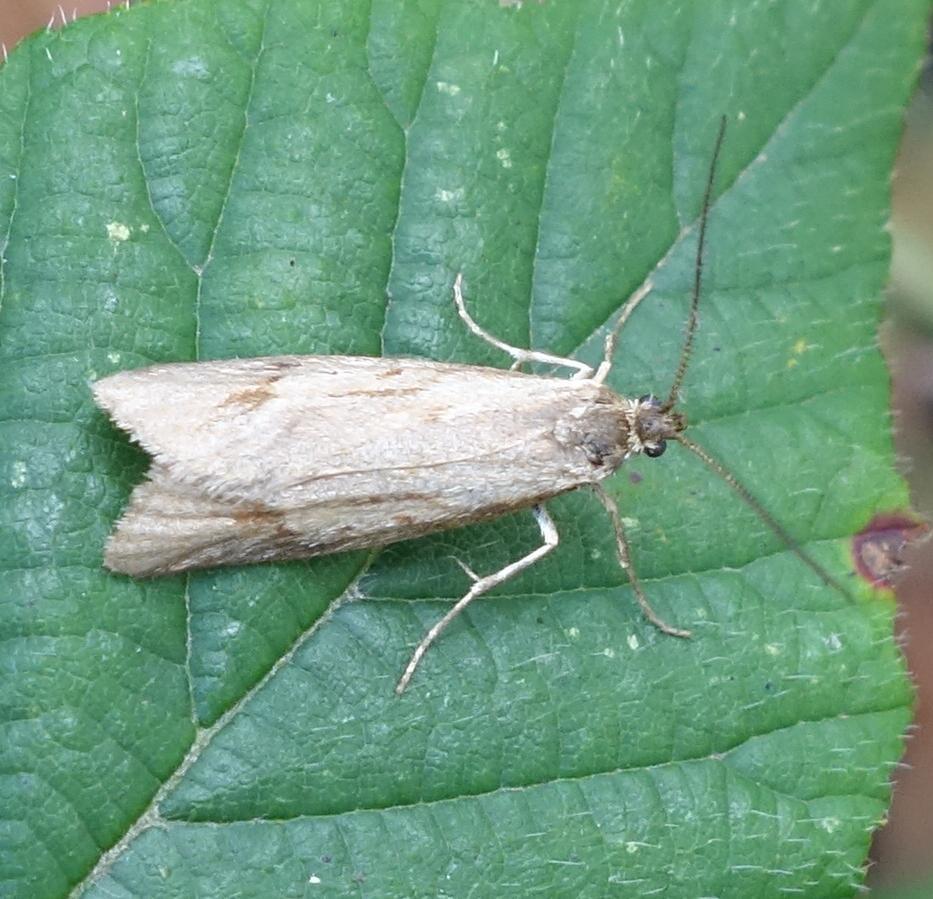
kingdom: Animalia
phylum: Arthropoda
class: Insecta
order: Lepidoptera
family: Lypusidae
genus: Diurnea
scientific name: Diurnea lipsiella
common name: November tubic
